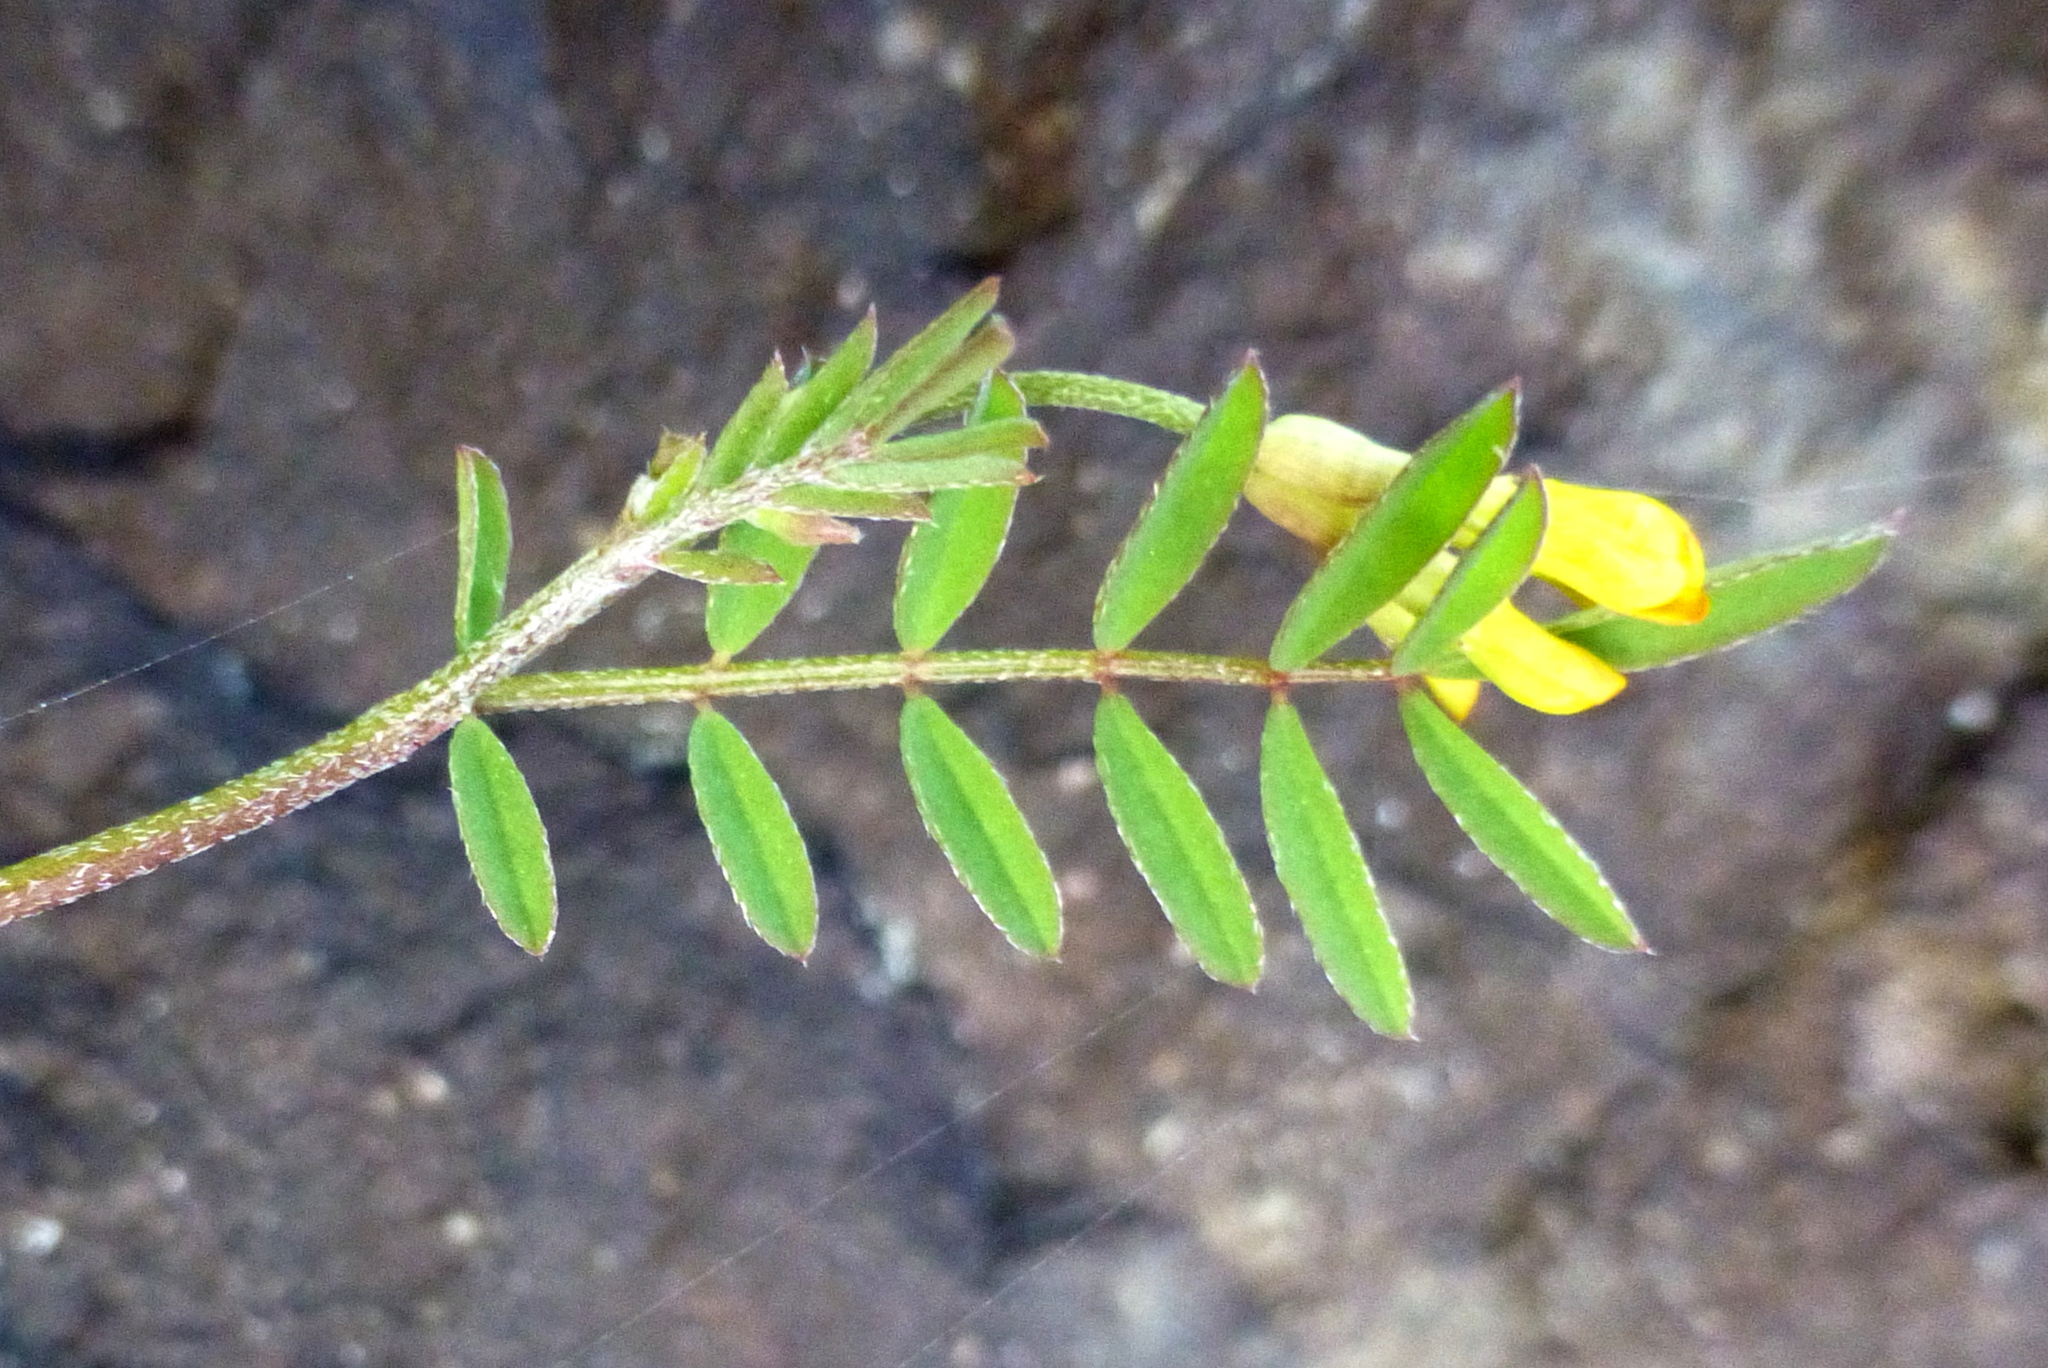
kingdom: Plantae
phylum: Tracheophyta
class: Magnoliopsida
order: Fabales
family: Fabaceae
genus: Ornithopus
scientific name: Ornithopus pinnatus
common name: Orange bird's-foot
